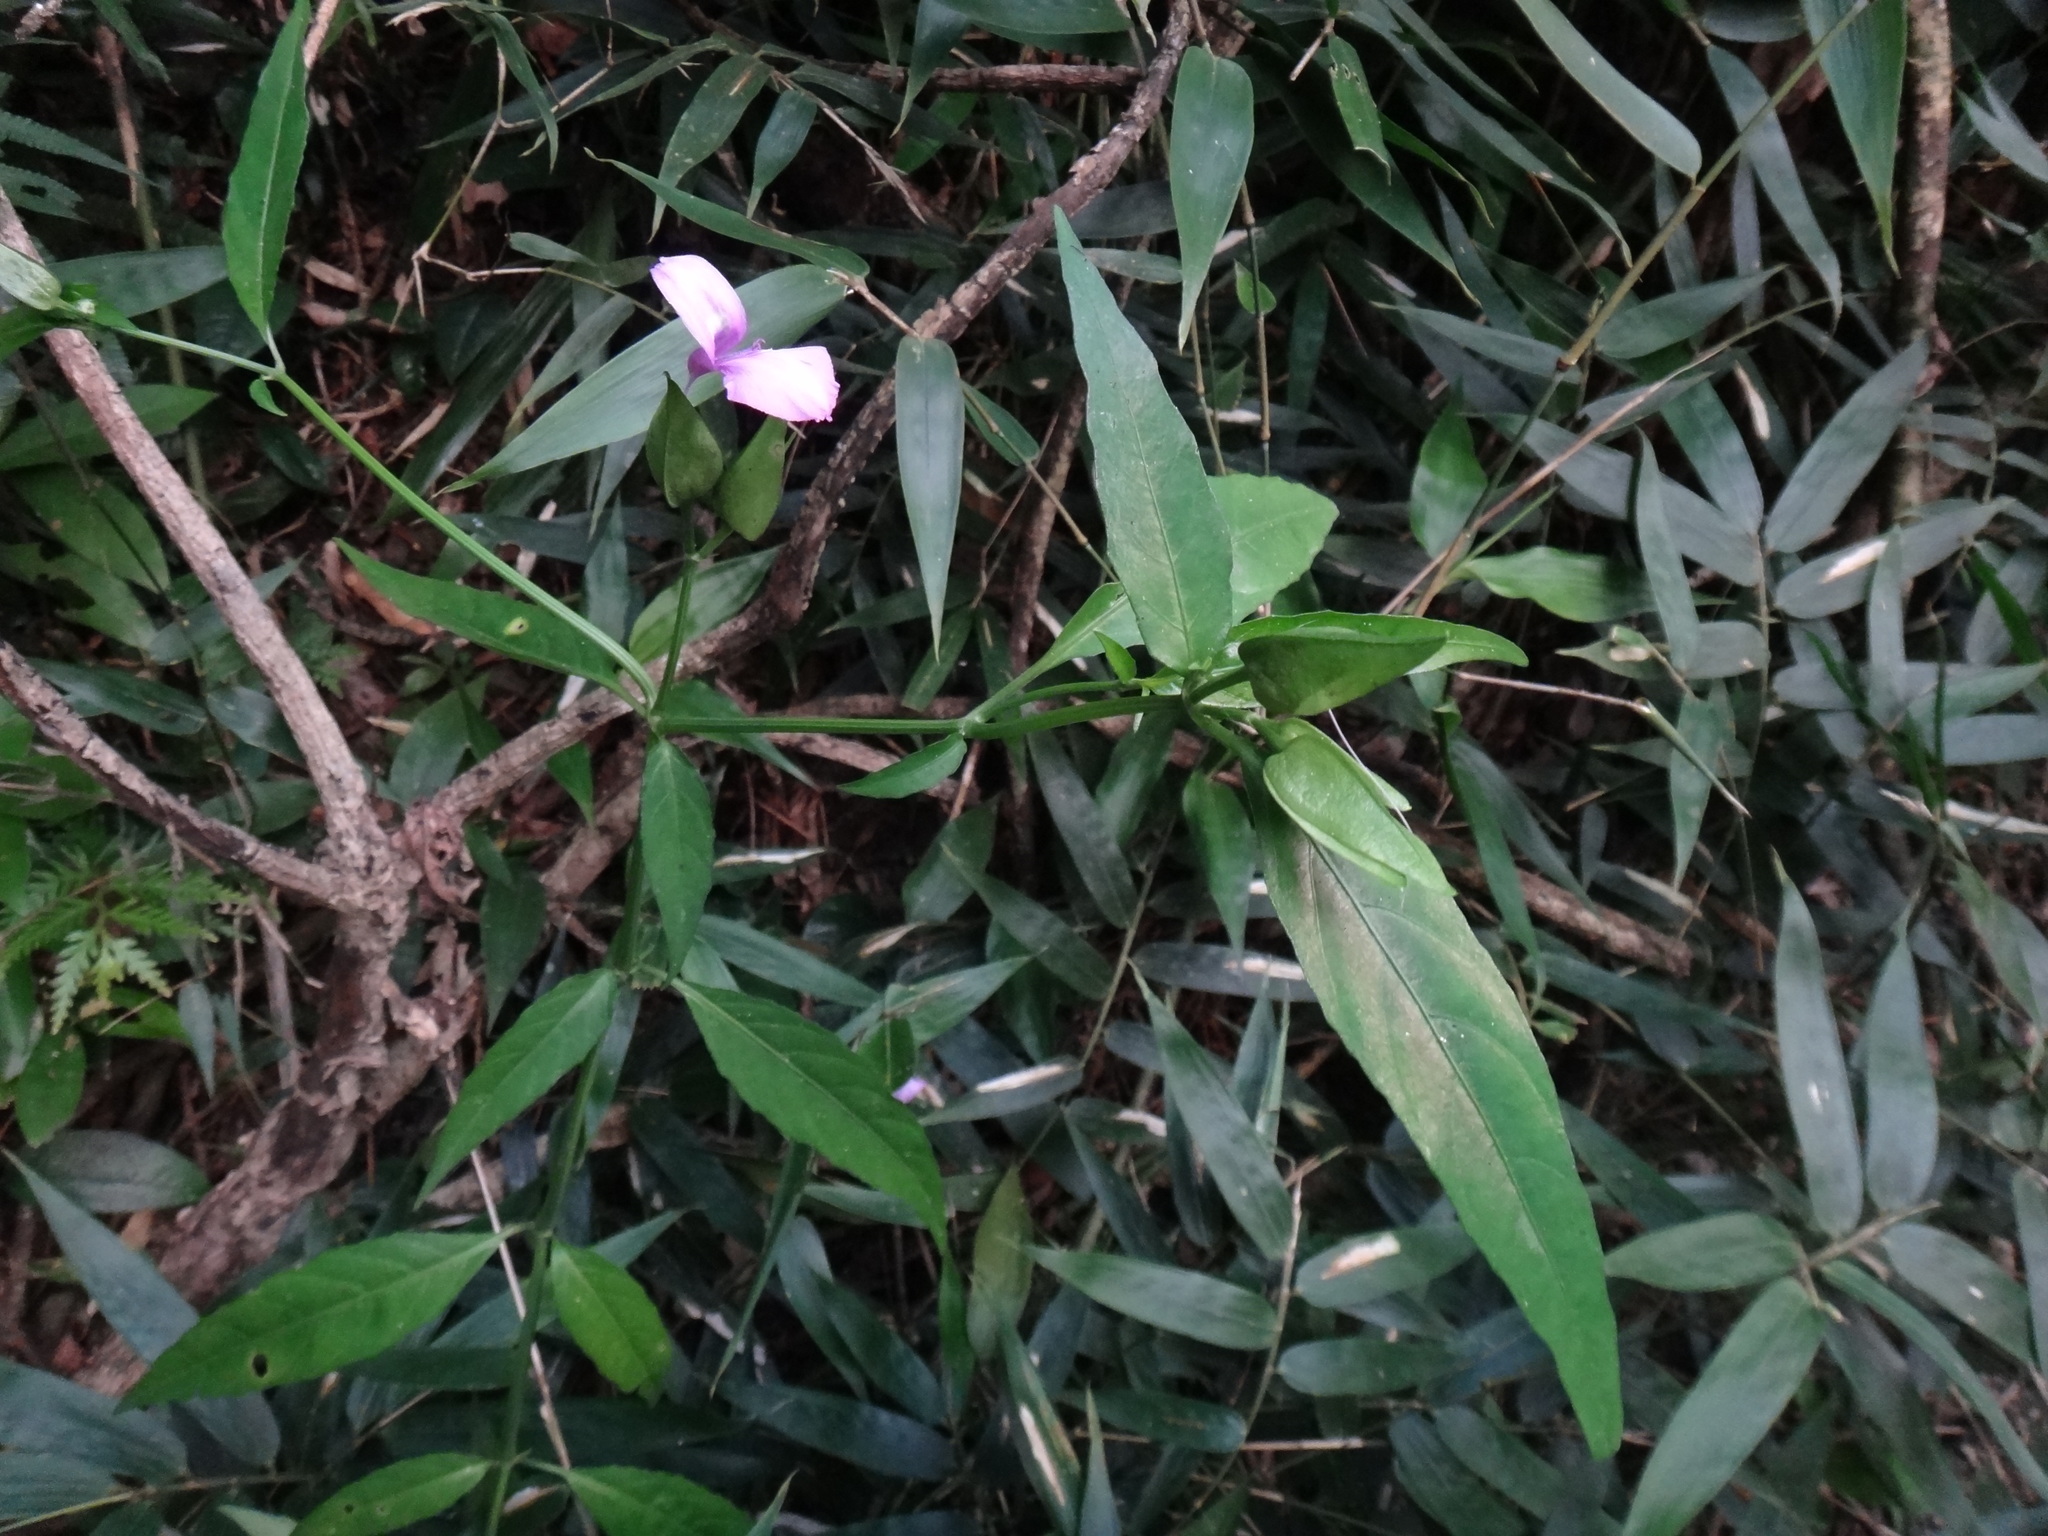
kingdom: Plantae
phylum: Tracheophyta
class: Magnoliopsida
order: Lamiales
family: Acanthaceae
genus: Dicliptera
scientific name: Dicliptera tinctoria
